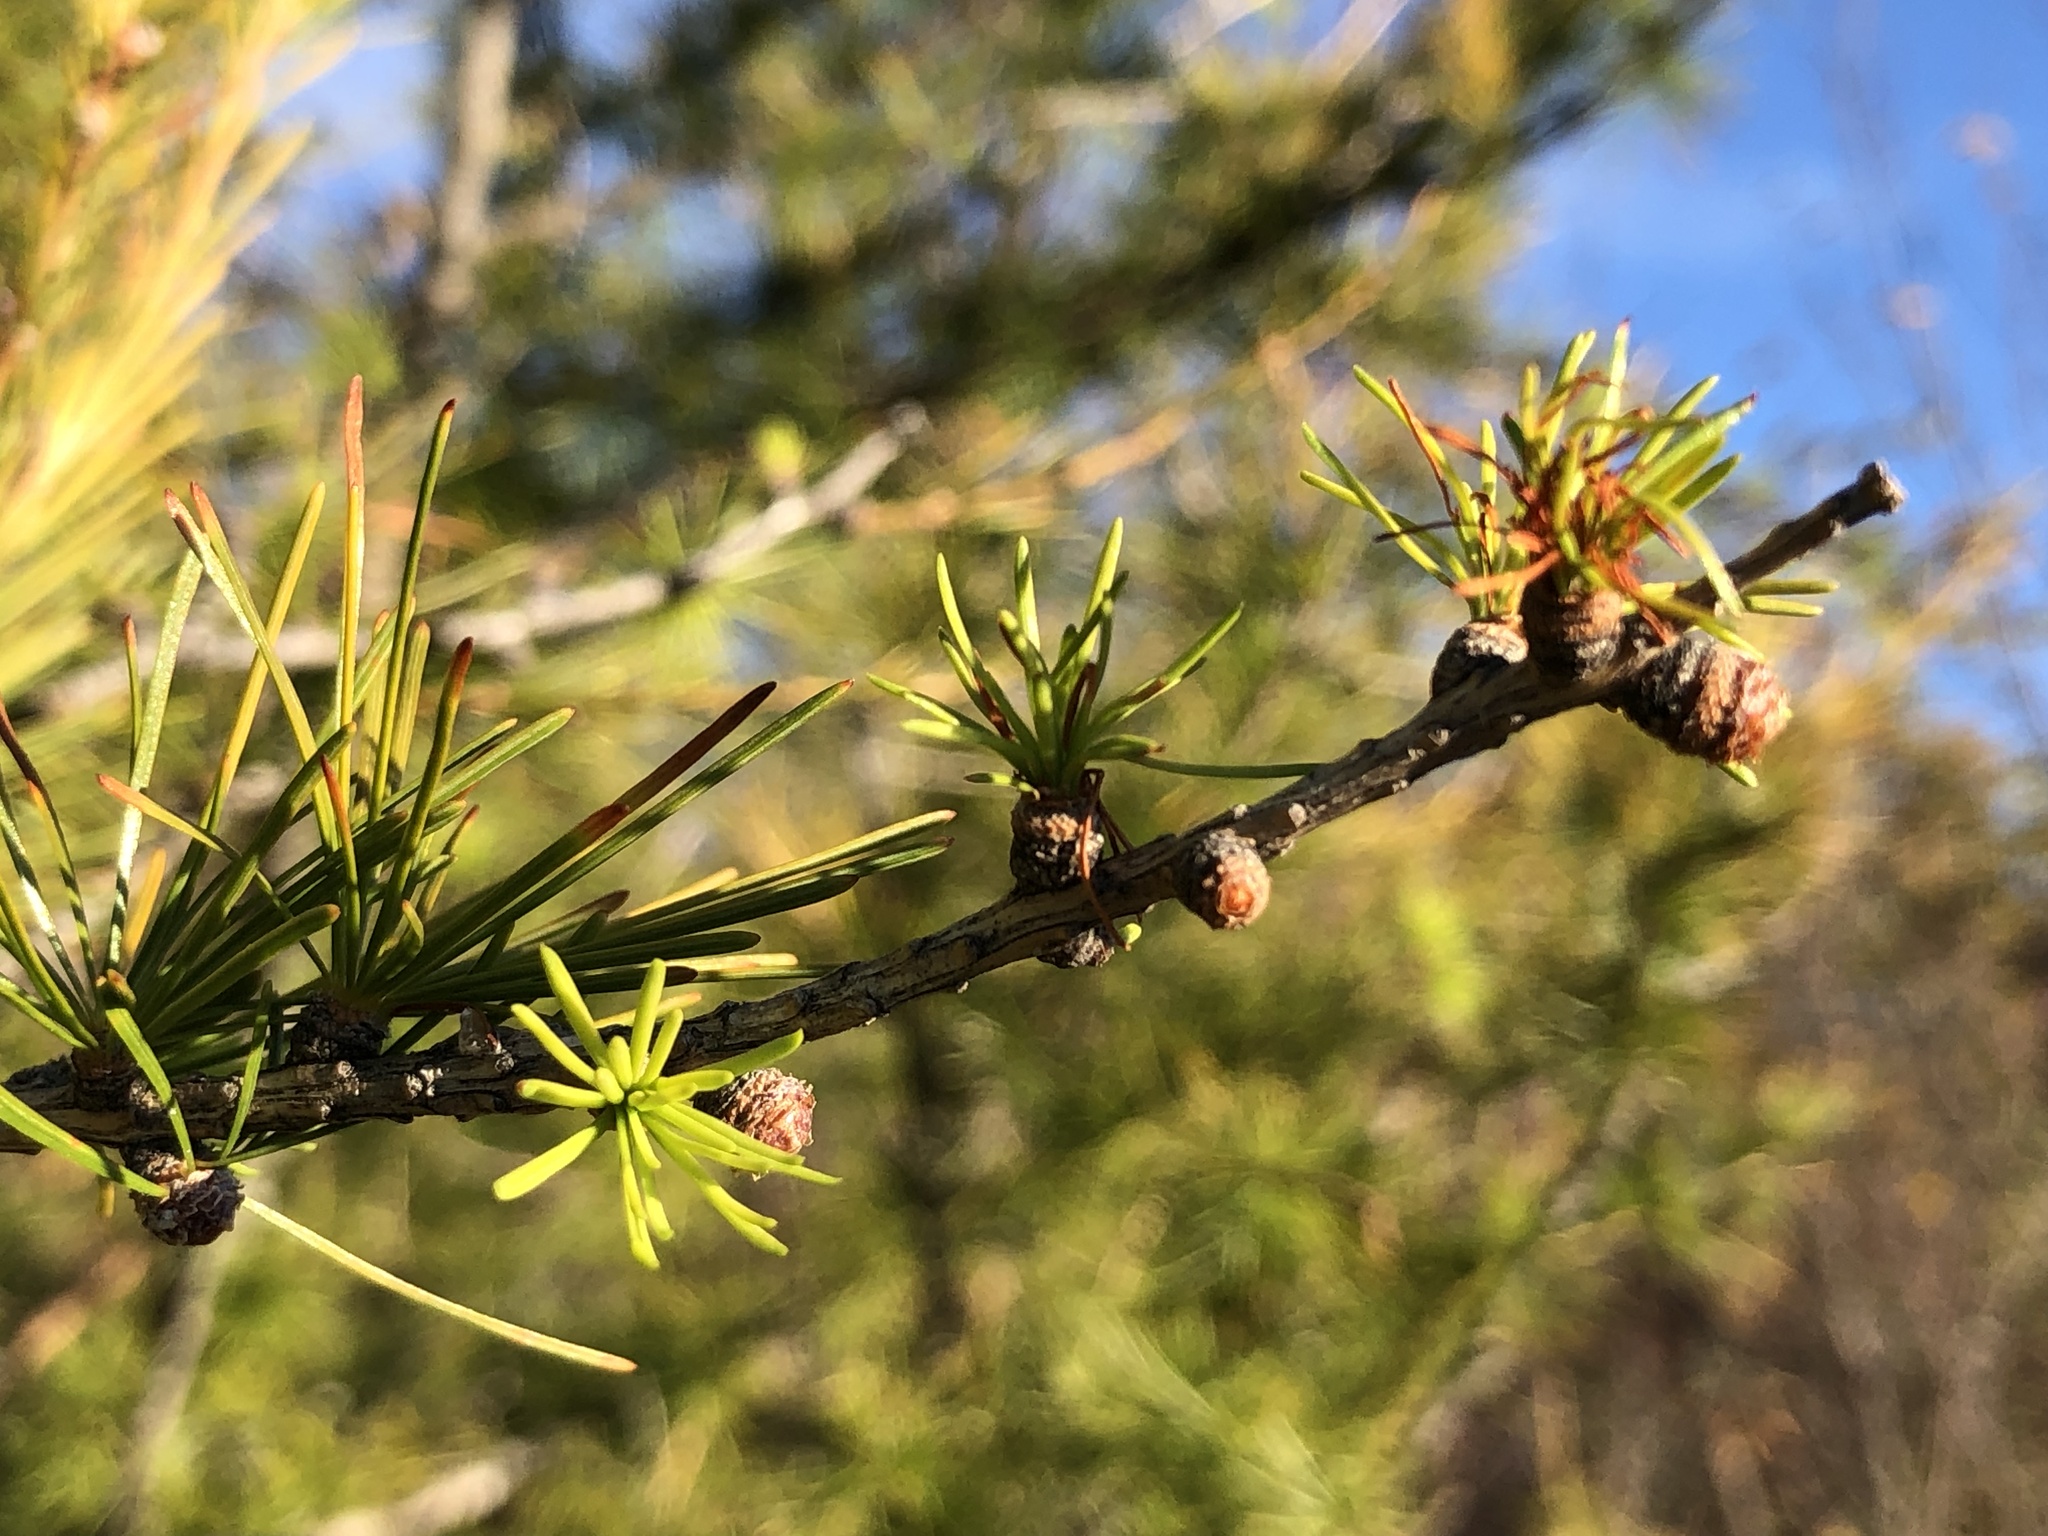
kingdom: Plantae
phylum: Tracheophyta
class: Pinopsida
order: Pinales
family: Pinaceae
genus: Larix
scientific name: Larix laricina
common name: American larch
